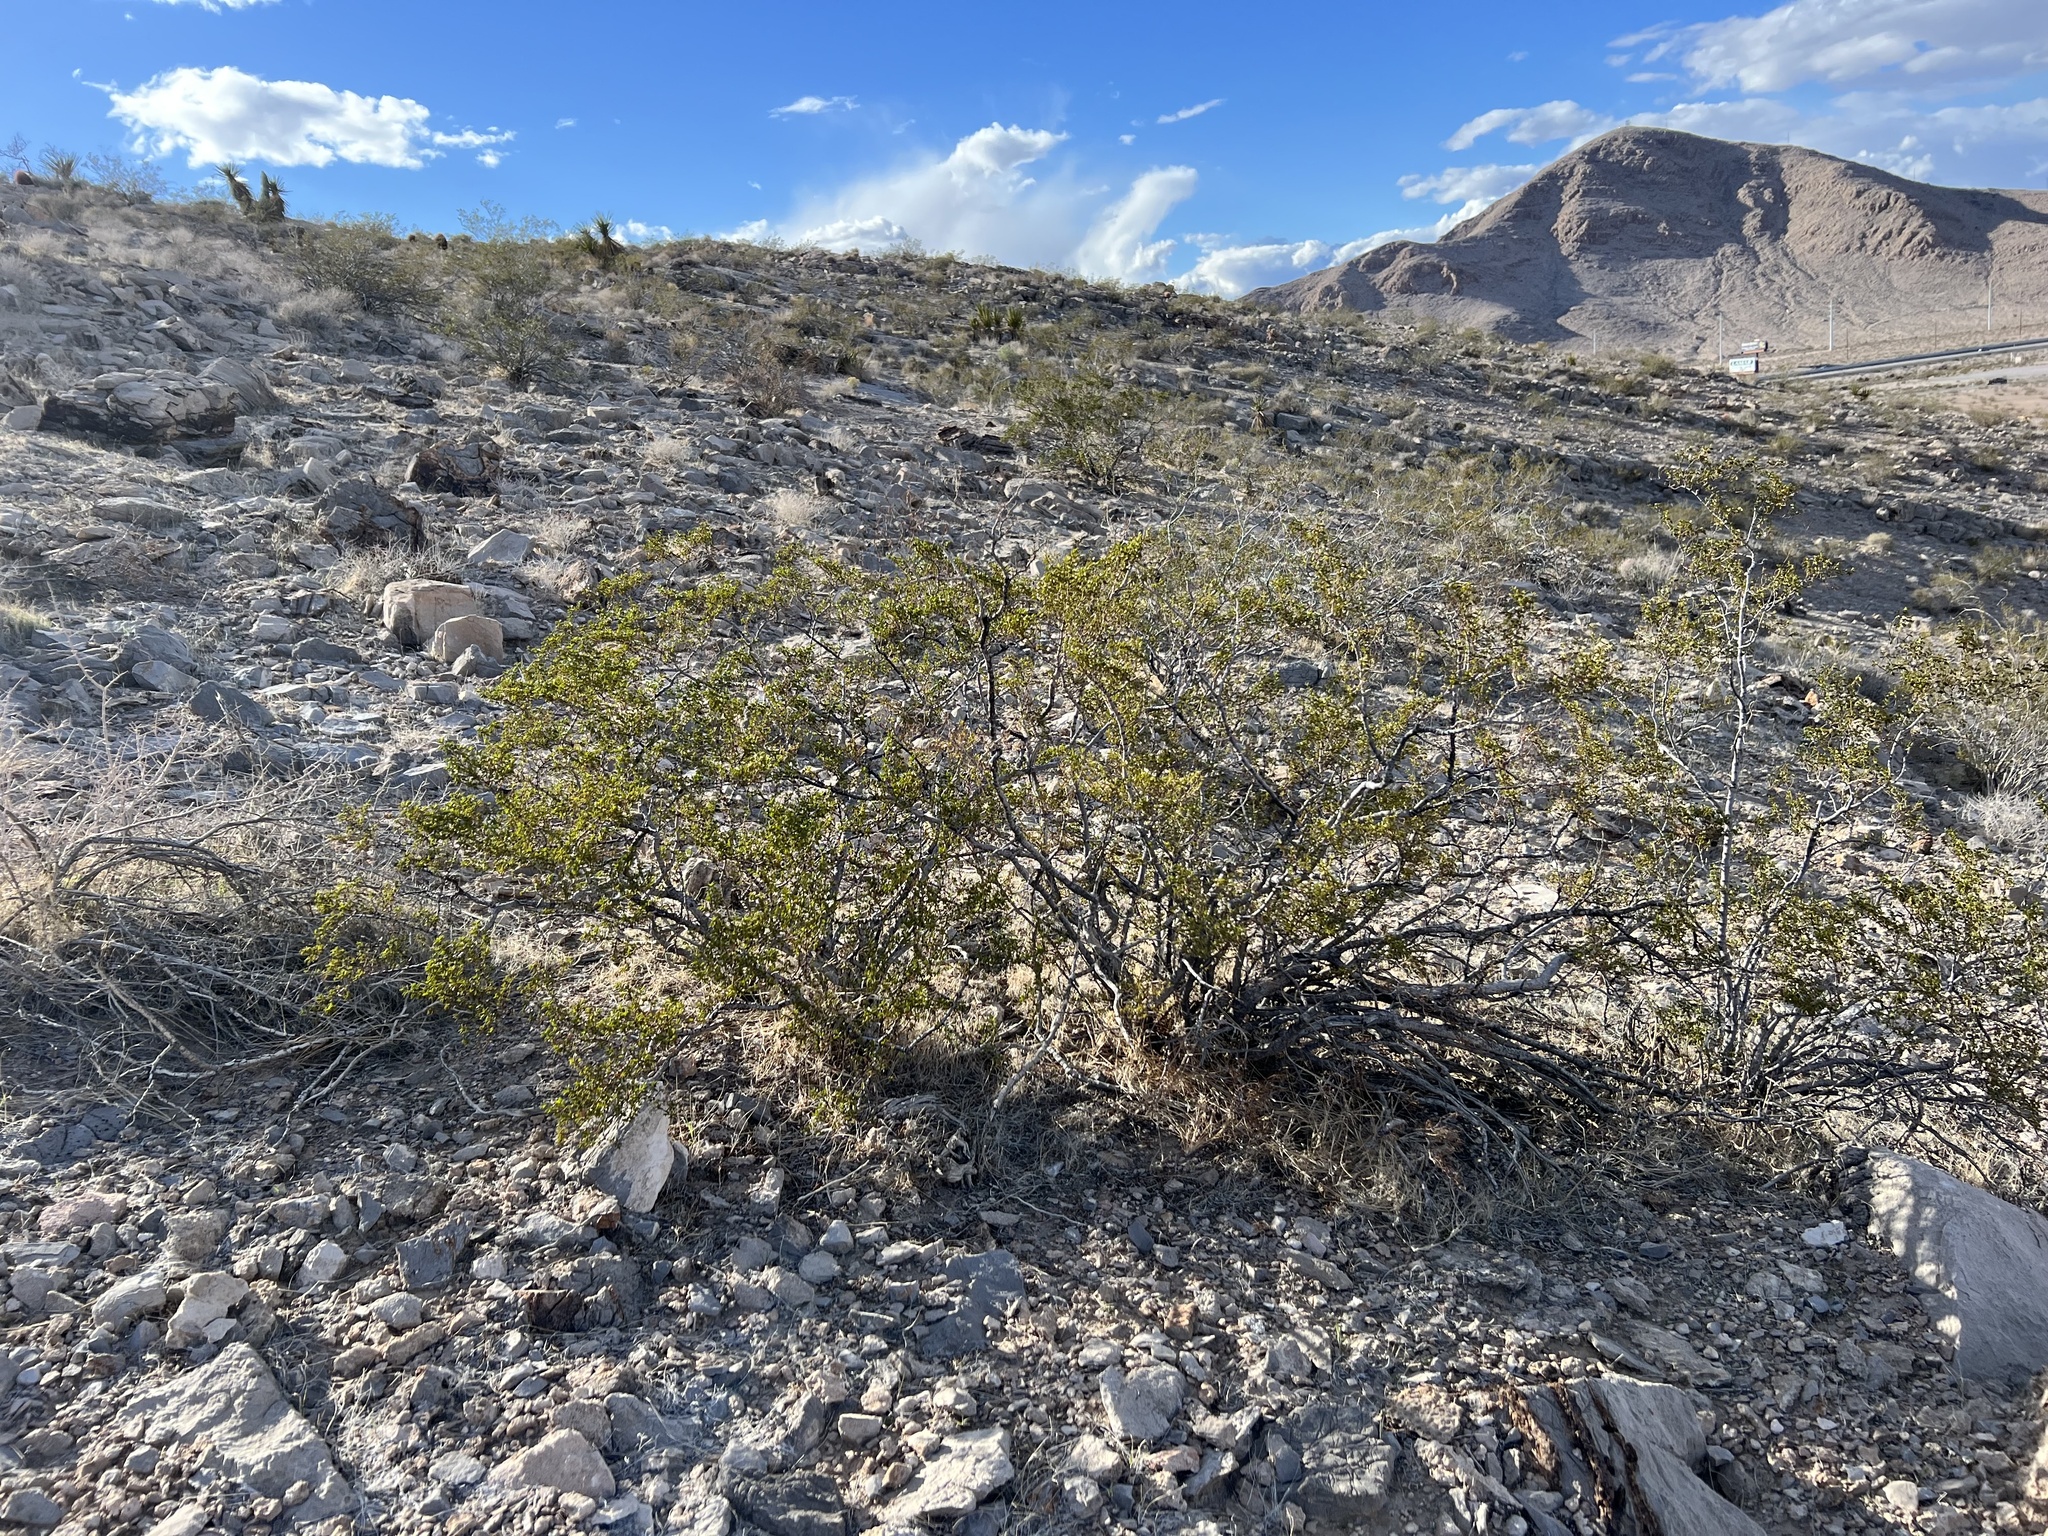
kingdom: Plantae
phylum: Tracheophyta
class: Magnoliopsida
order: Zygophyllales
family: Zygophyllaceae
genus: Larrea
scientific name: Larrea tridentata
